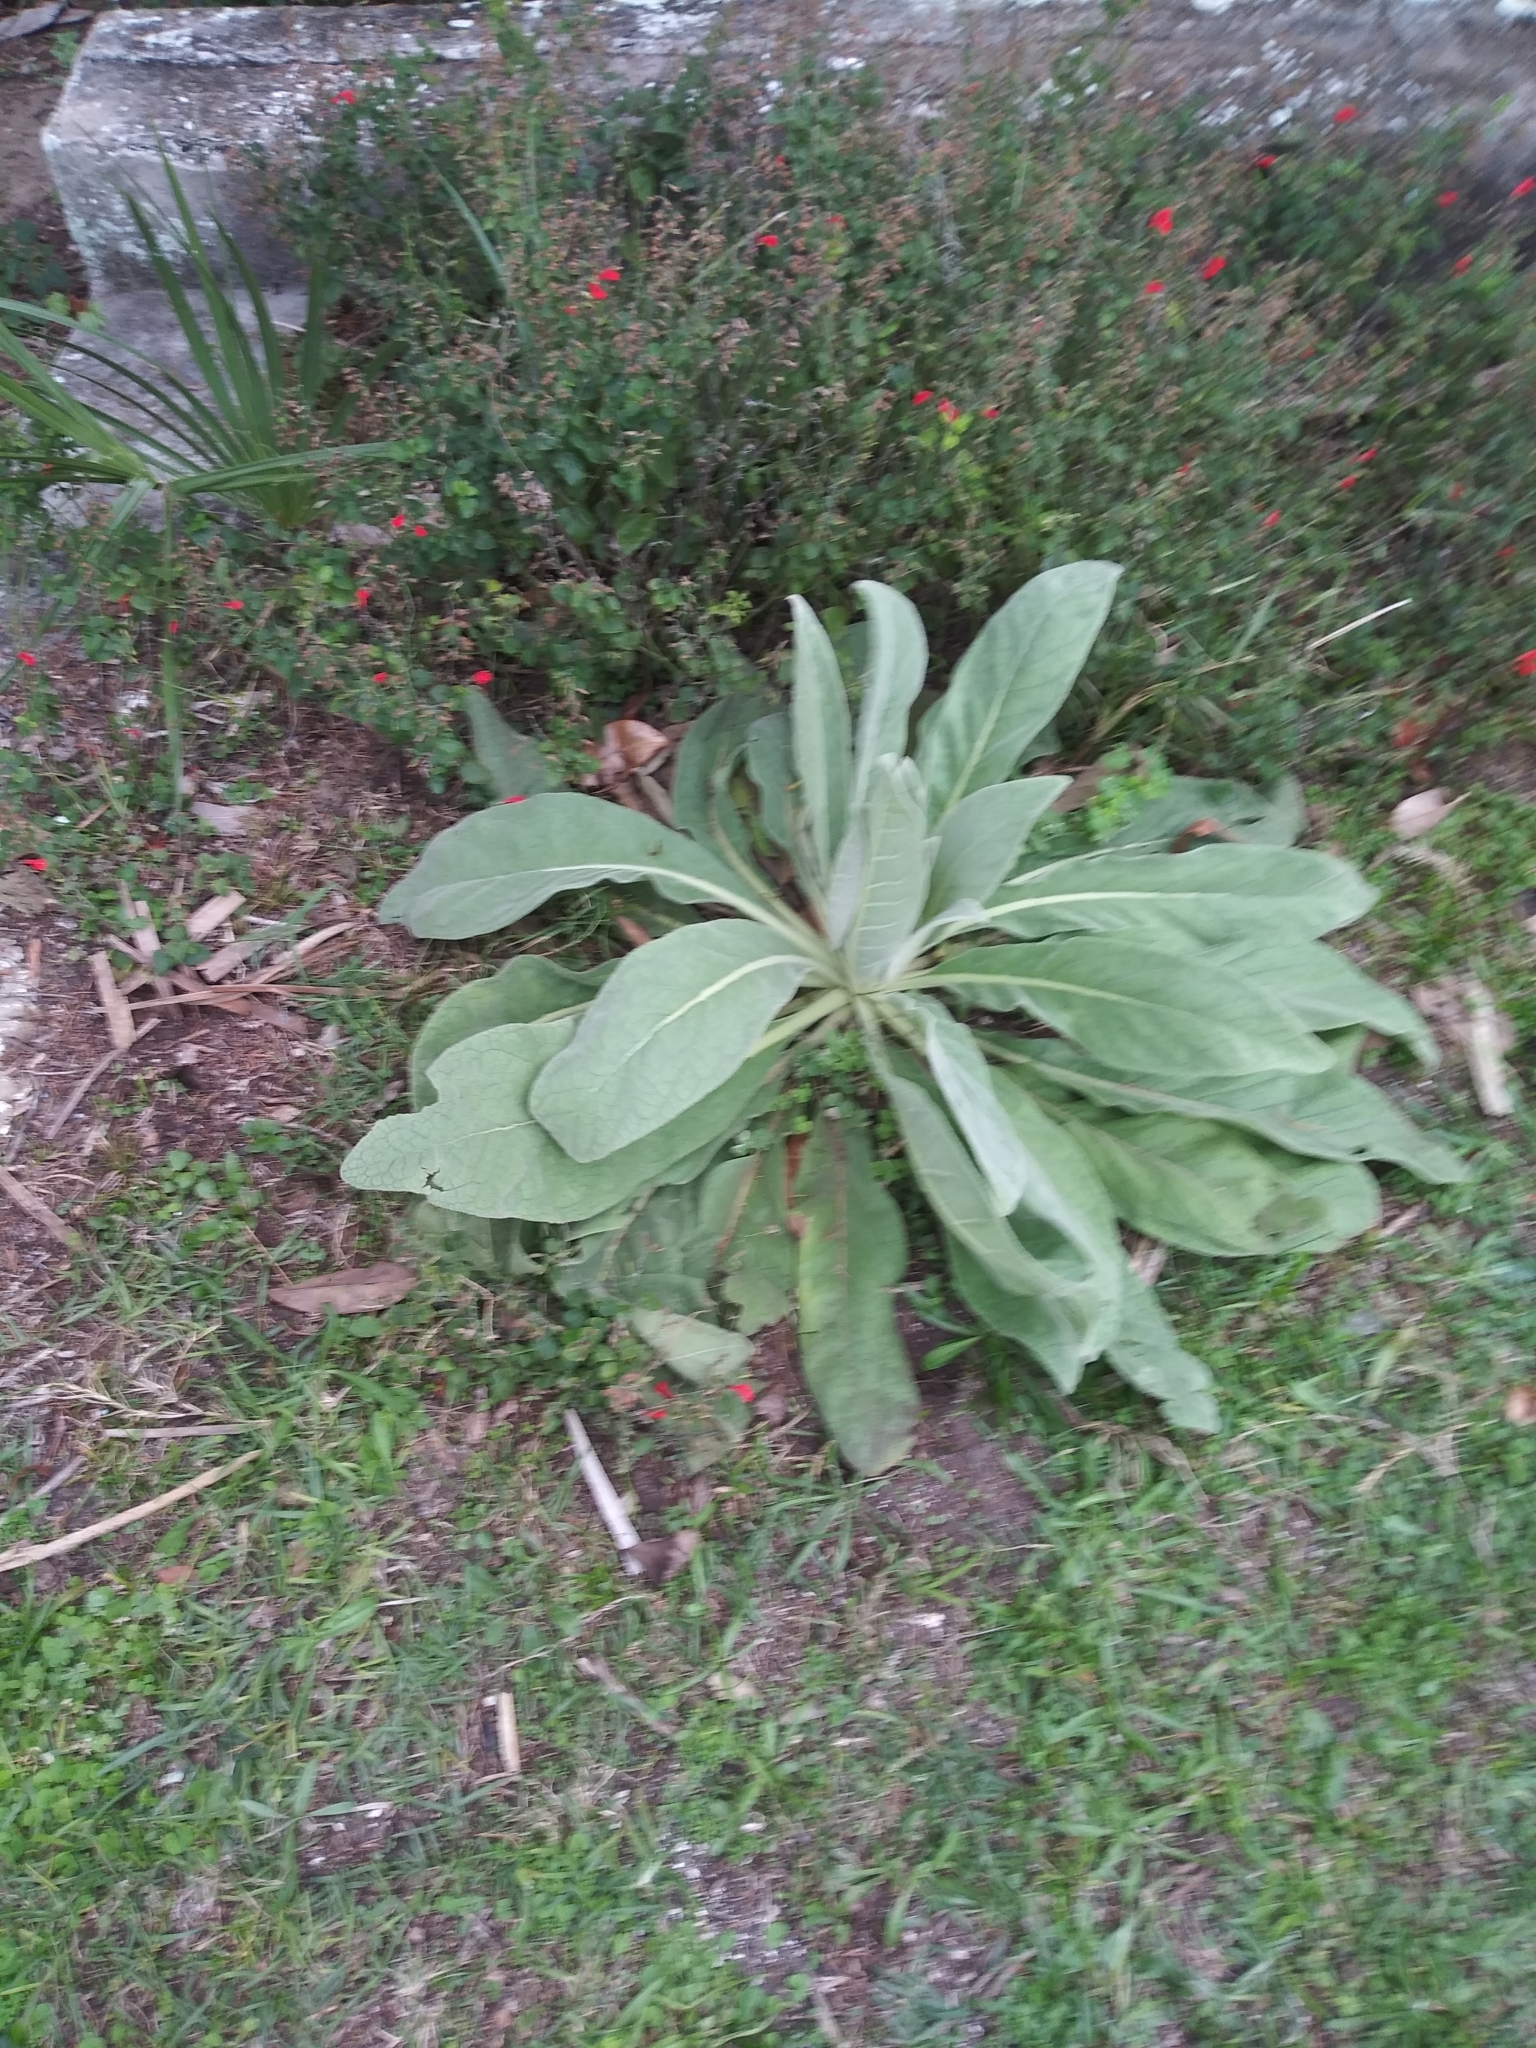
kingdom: Plantae
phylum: Tracheophyta
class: Magnoliopsida
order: Lamiales
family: Scrophulariaceae
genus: Verbascum
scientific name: Verbascum thapsus
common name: Common mullein
